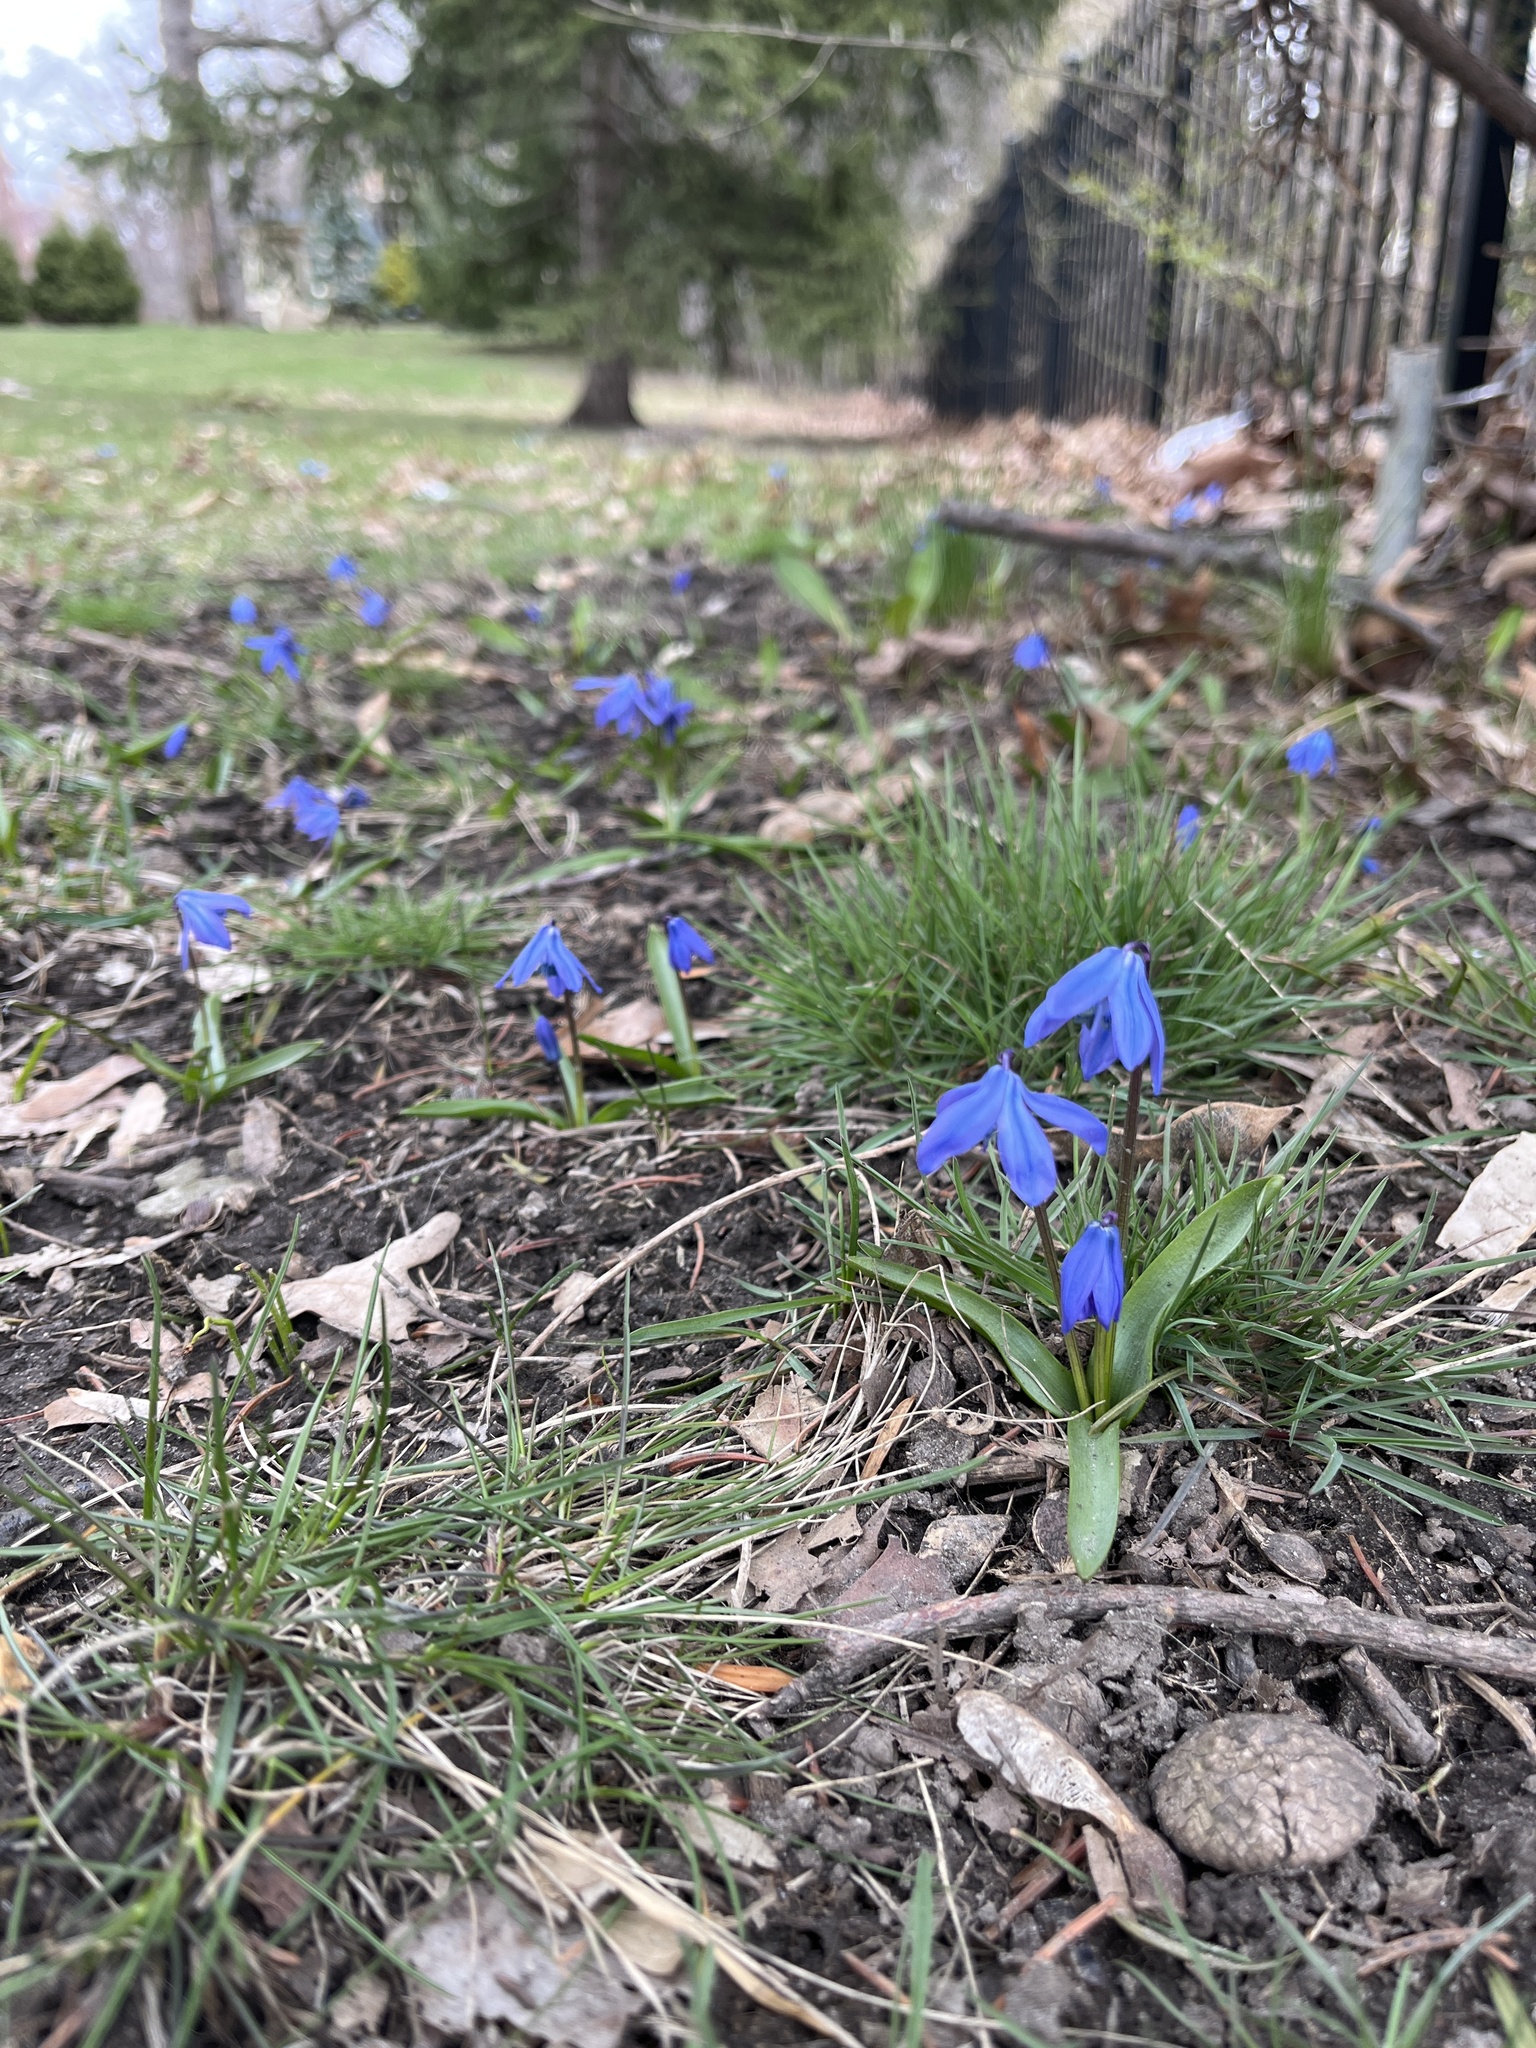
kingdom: Plantae
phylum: Tracheophyta
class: Liliopsida
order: Asparagales
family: Asparagaceae
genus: Scilla
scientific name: Scilla siberica
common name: Siberian squill
